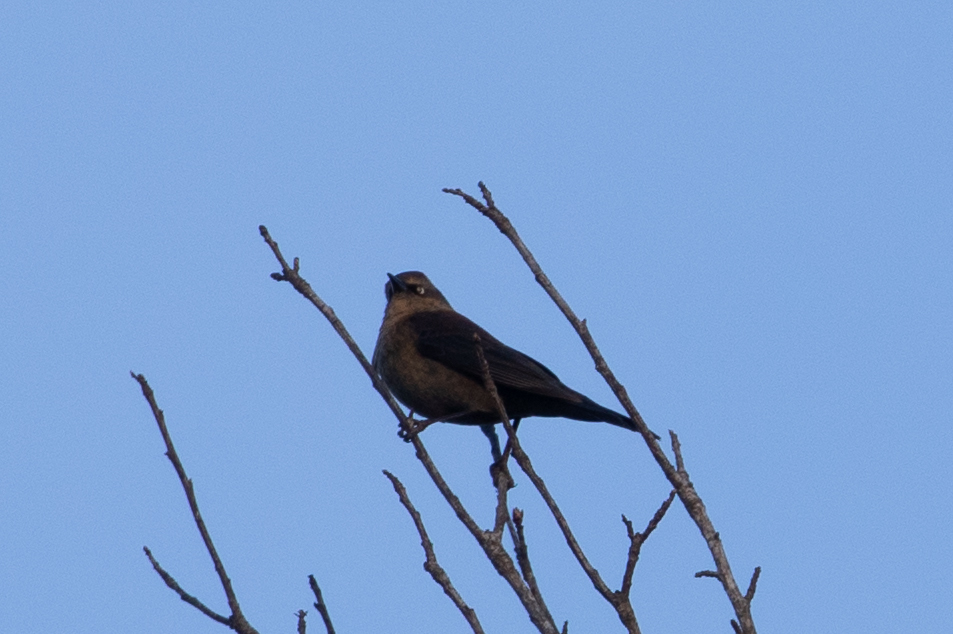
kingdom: Animalia
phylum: Chordata
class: Aves
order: Passeriformes
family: Icteridae
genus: Euphagus
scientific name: Euphagus carolinus
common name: Rusty blackbird
